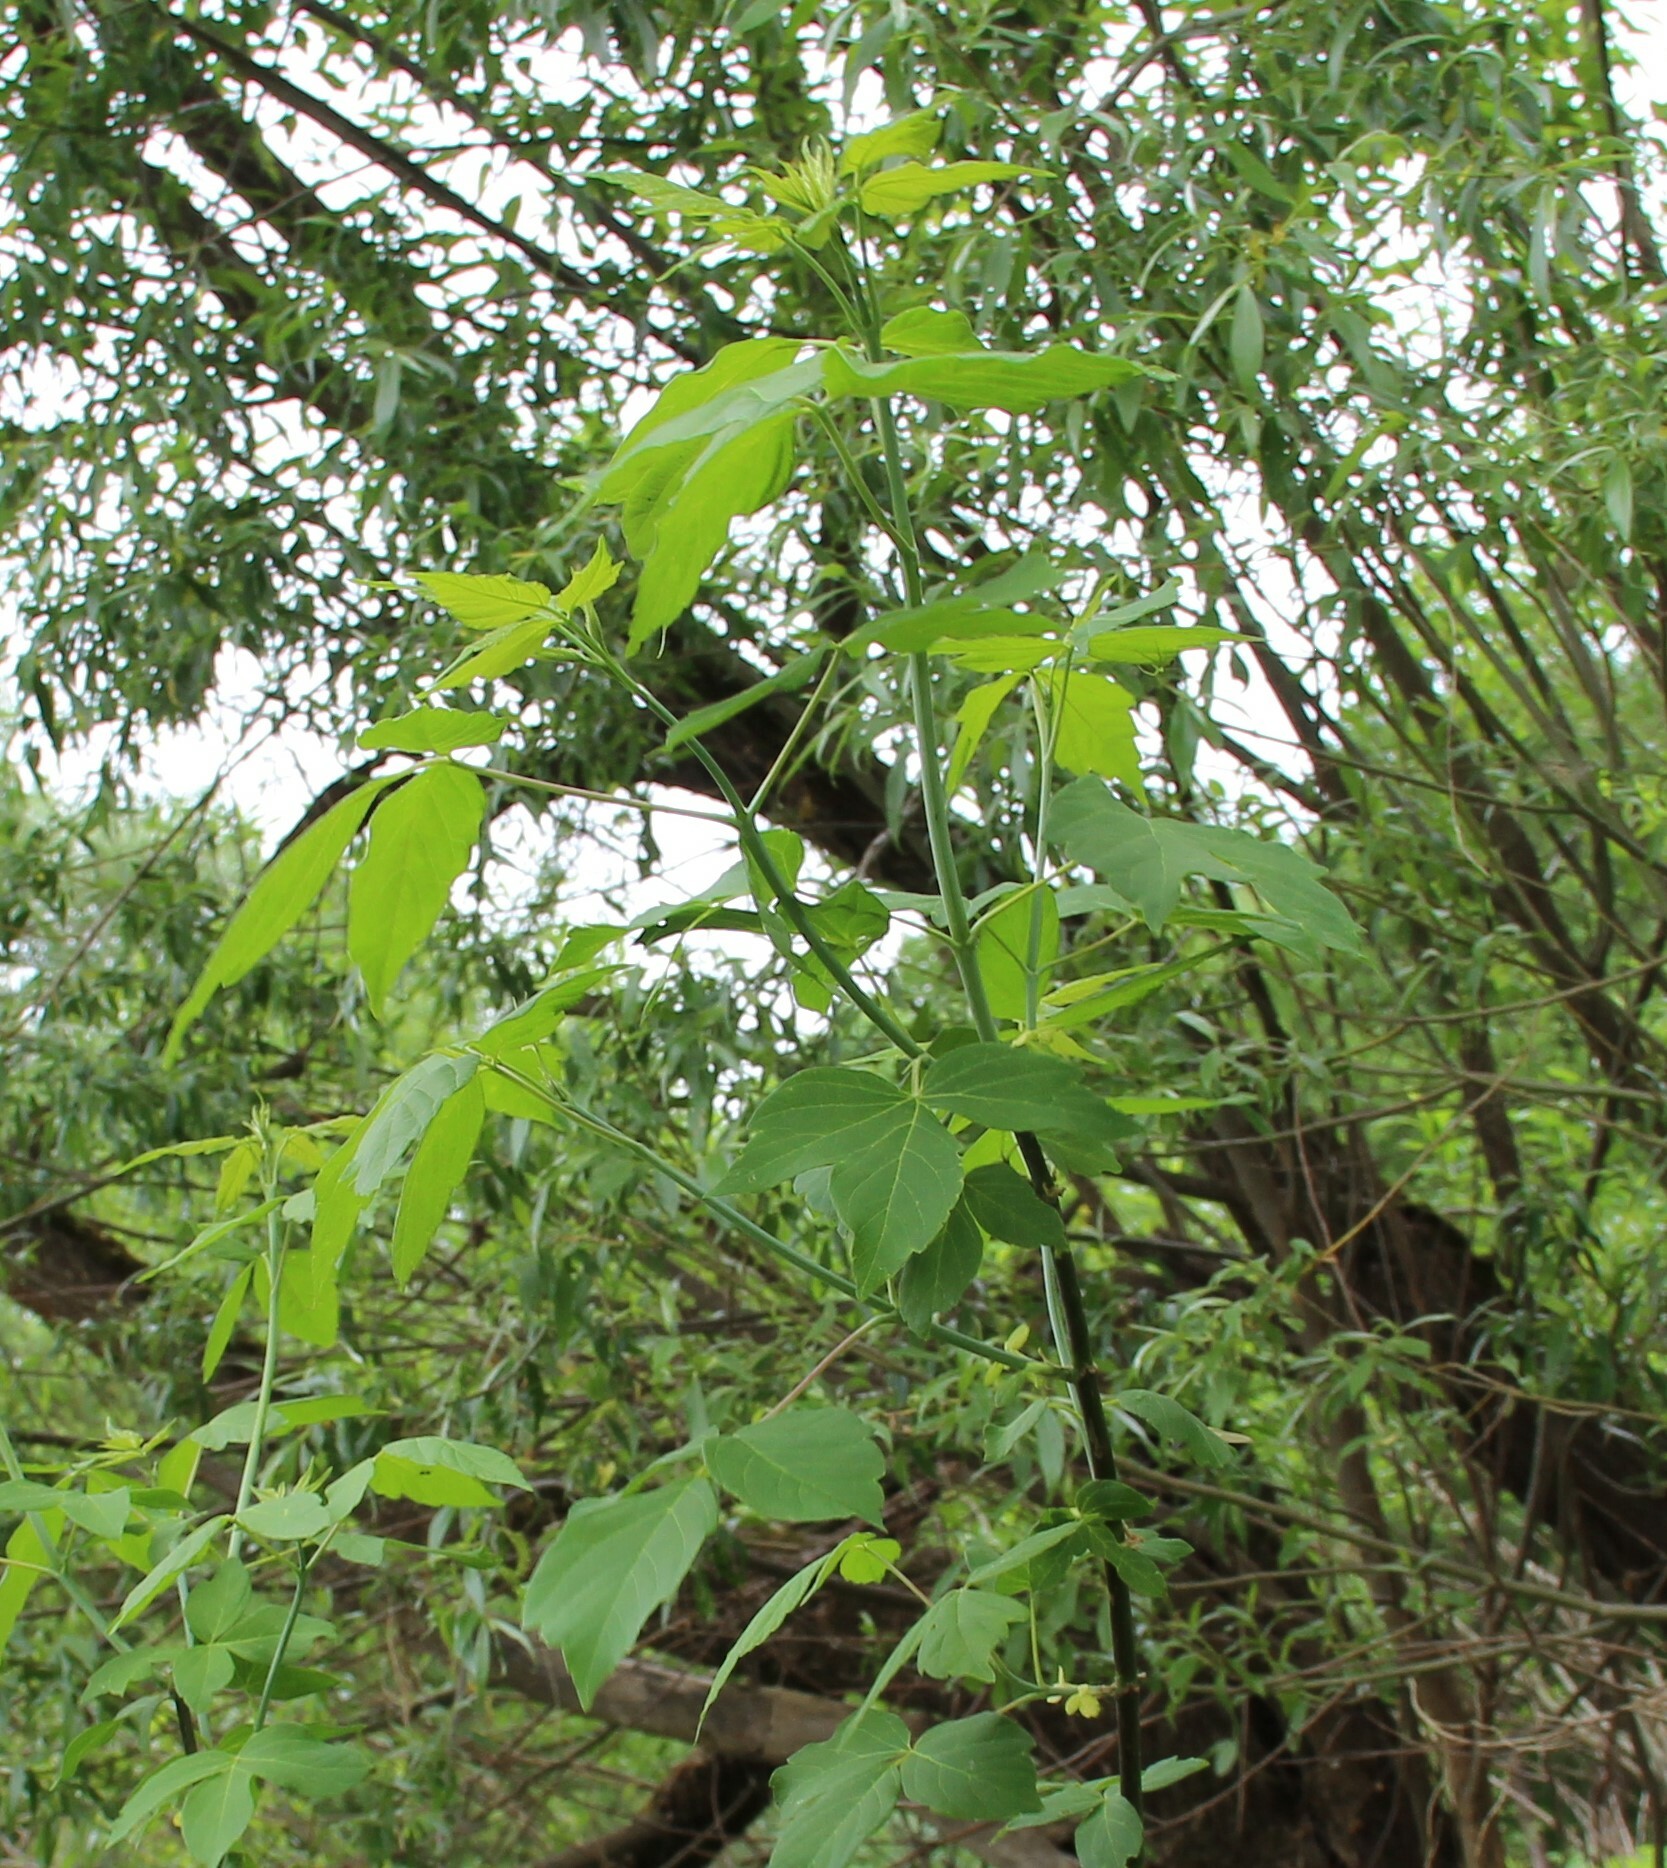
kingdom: Plantae
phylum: Tracheophyta
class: Magnoliopsida
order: Sapindales
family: Sapindaceae
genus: Acer
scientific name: Acer negundo
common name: Ashleaf maple
